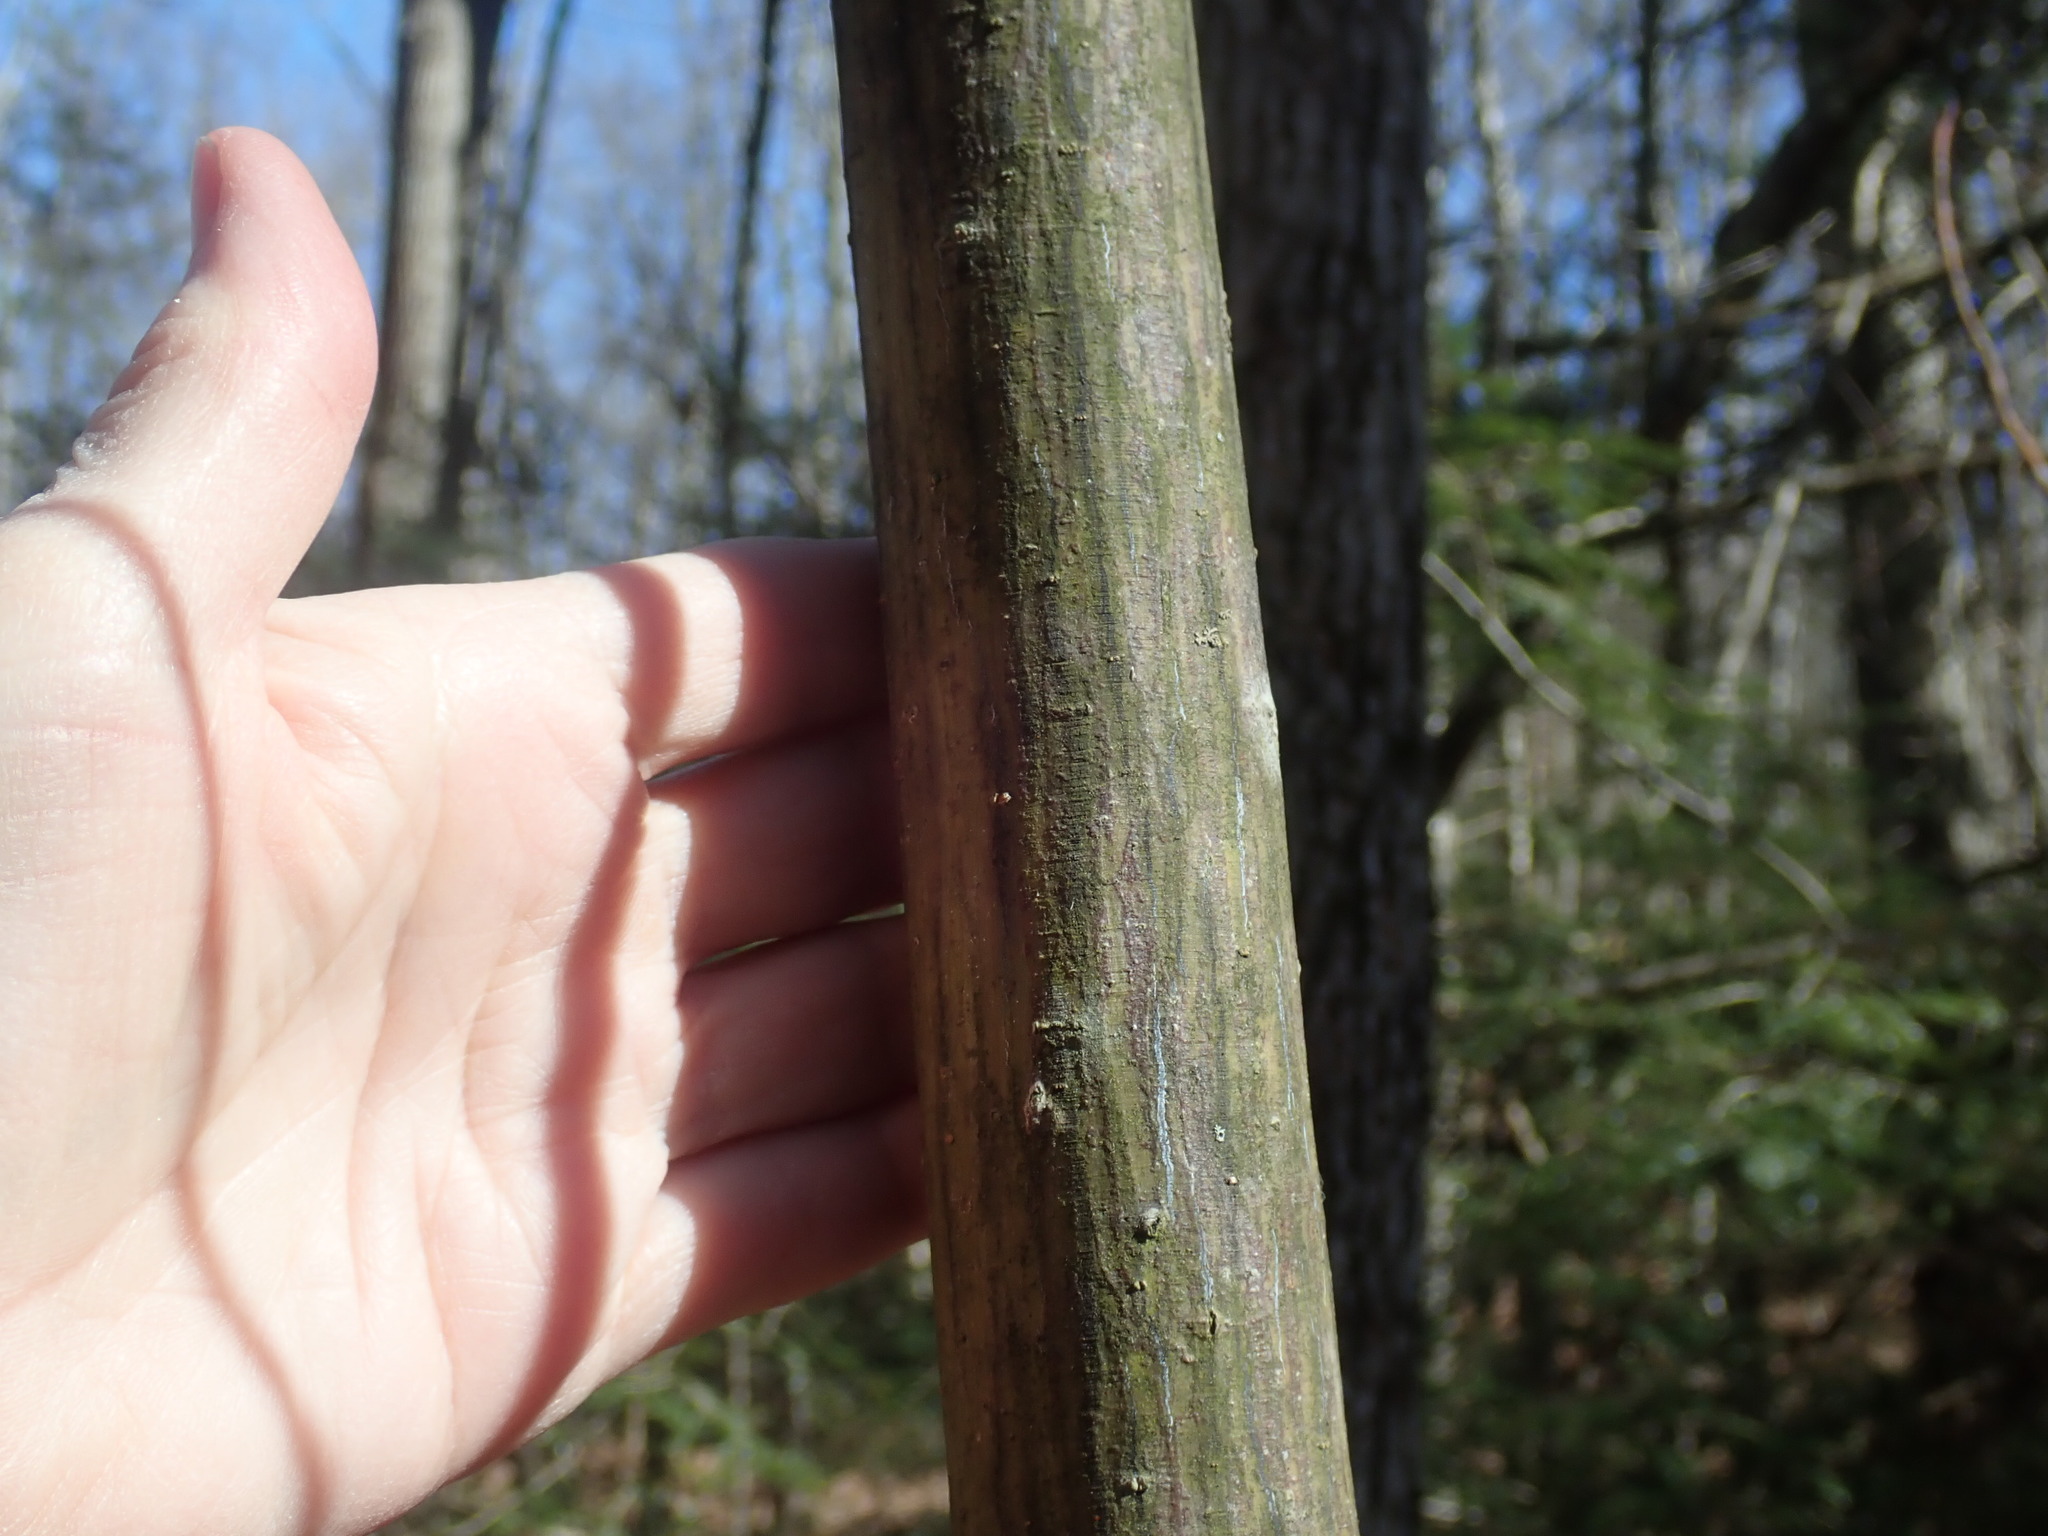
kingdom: Plantae
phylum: Tracheophyta
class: Magnoliopsida
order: Sapindales
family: Sapindaceae
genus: Acer
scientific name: Acer pensylvanicum
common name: Moosewood
